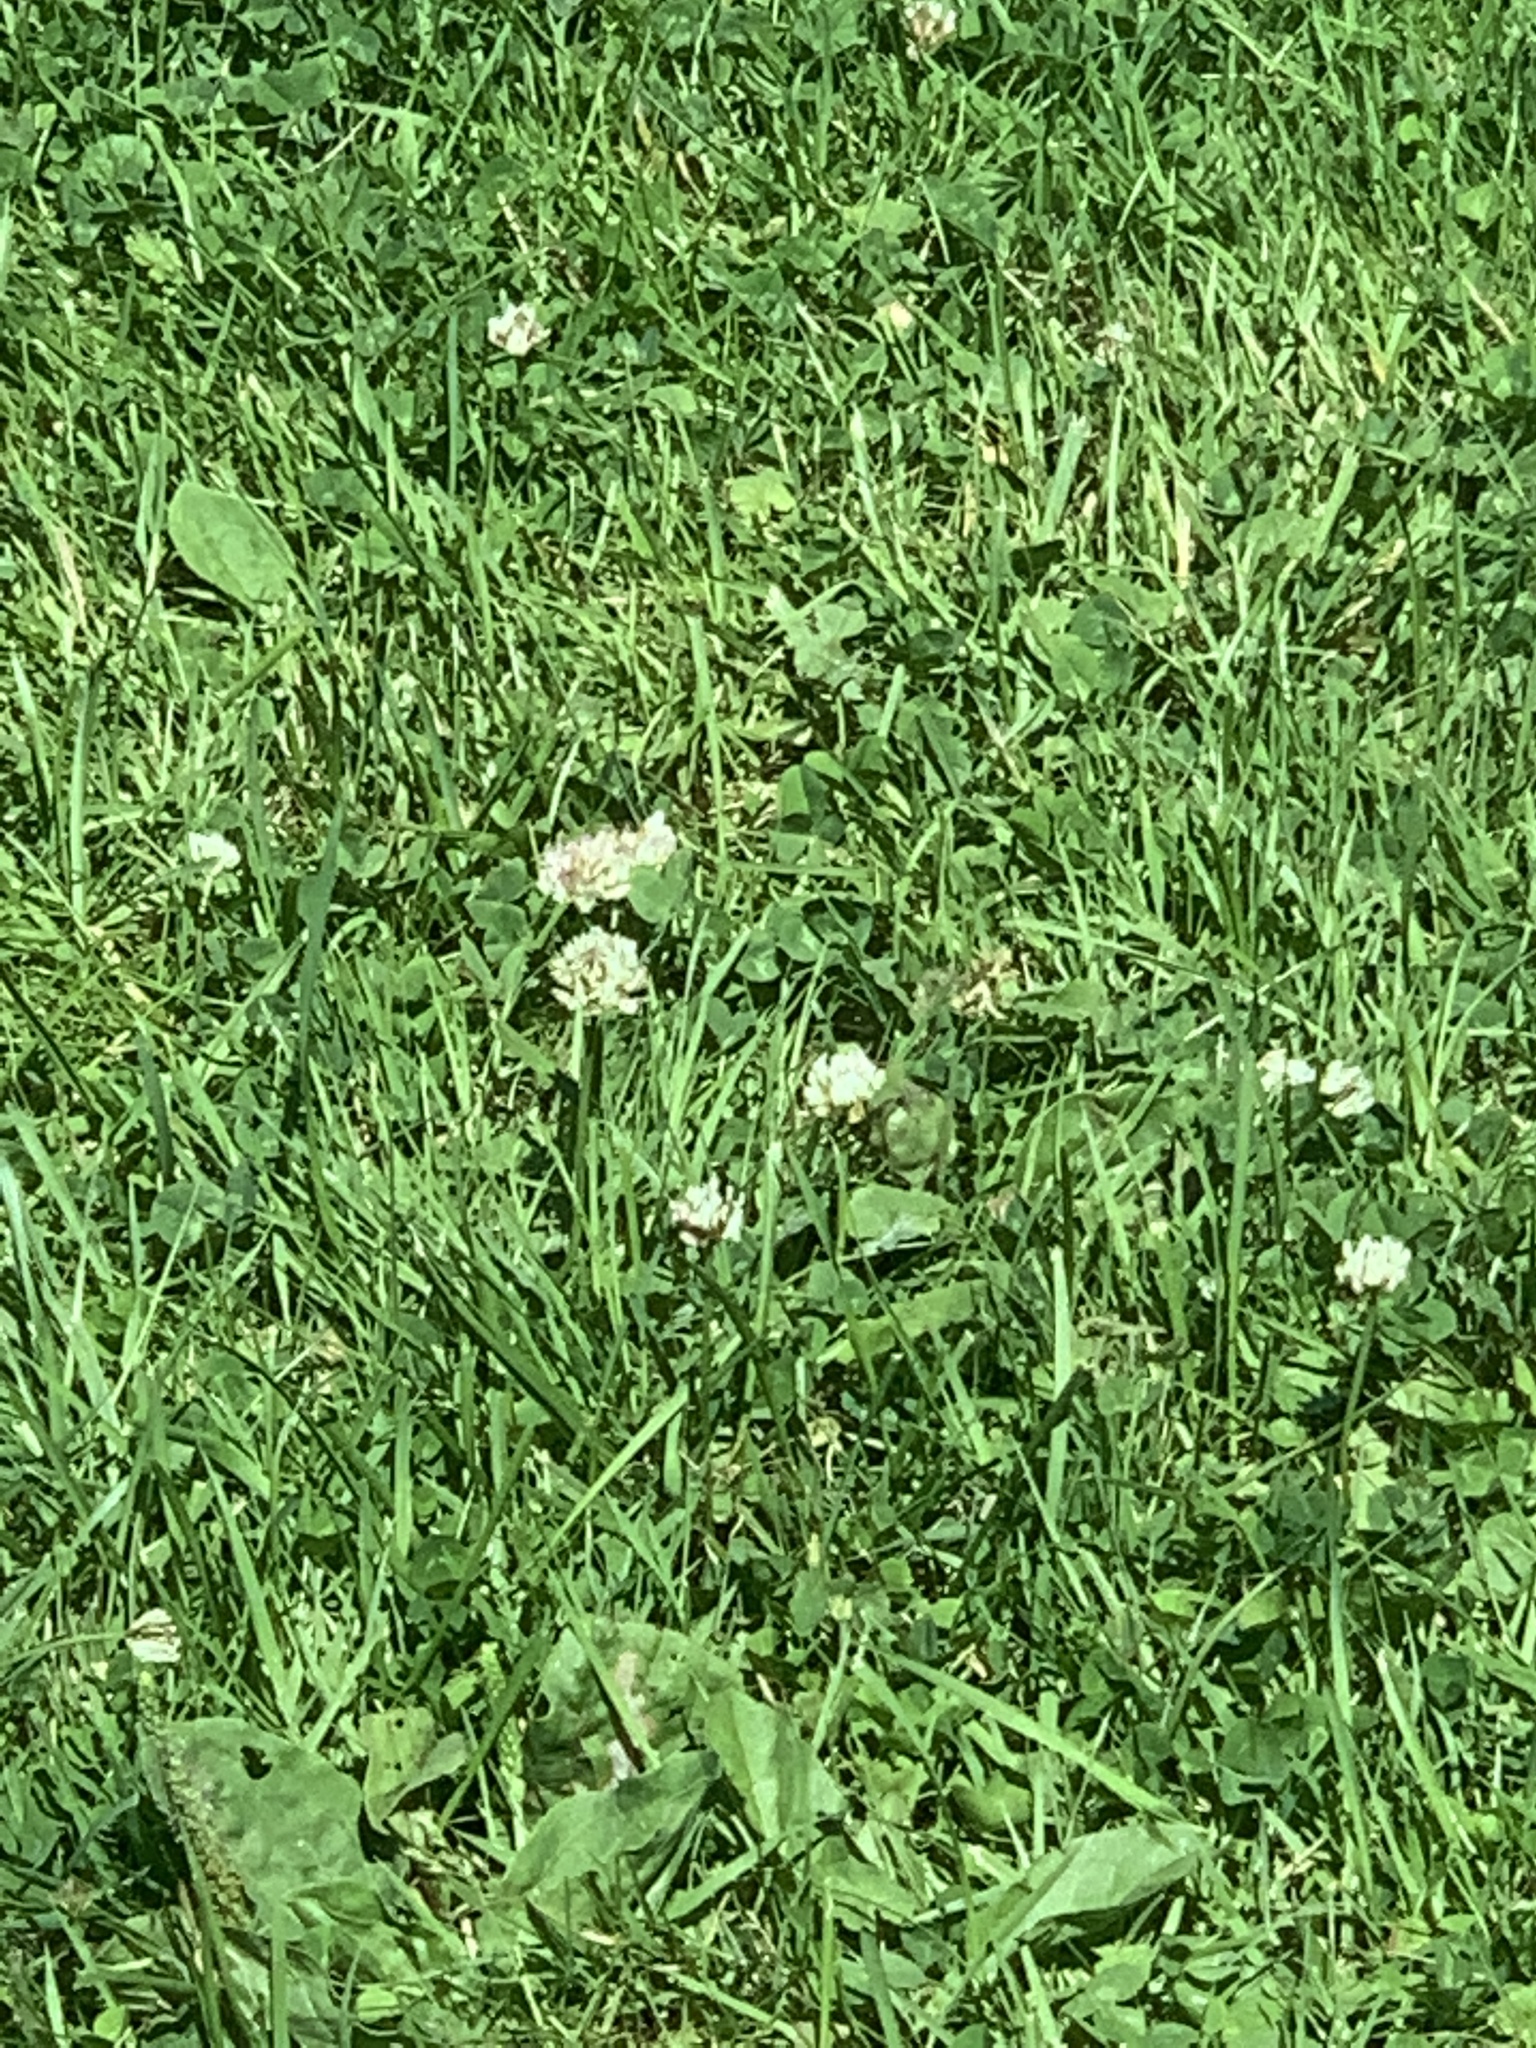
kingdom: Plantae
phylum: Tracheophyta
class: Magnoliopsida
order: Fabales
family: Fabaceae
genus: Trifolium
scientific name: Trifolium repens
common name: White clover
